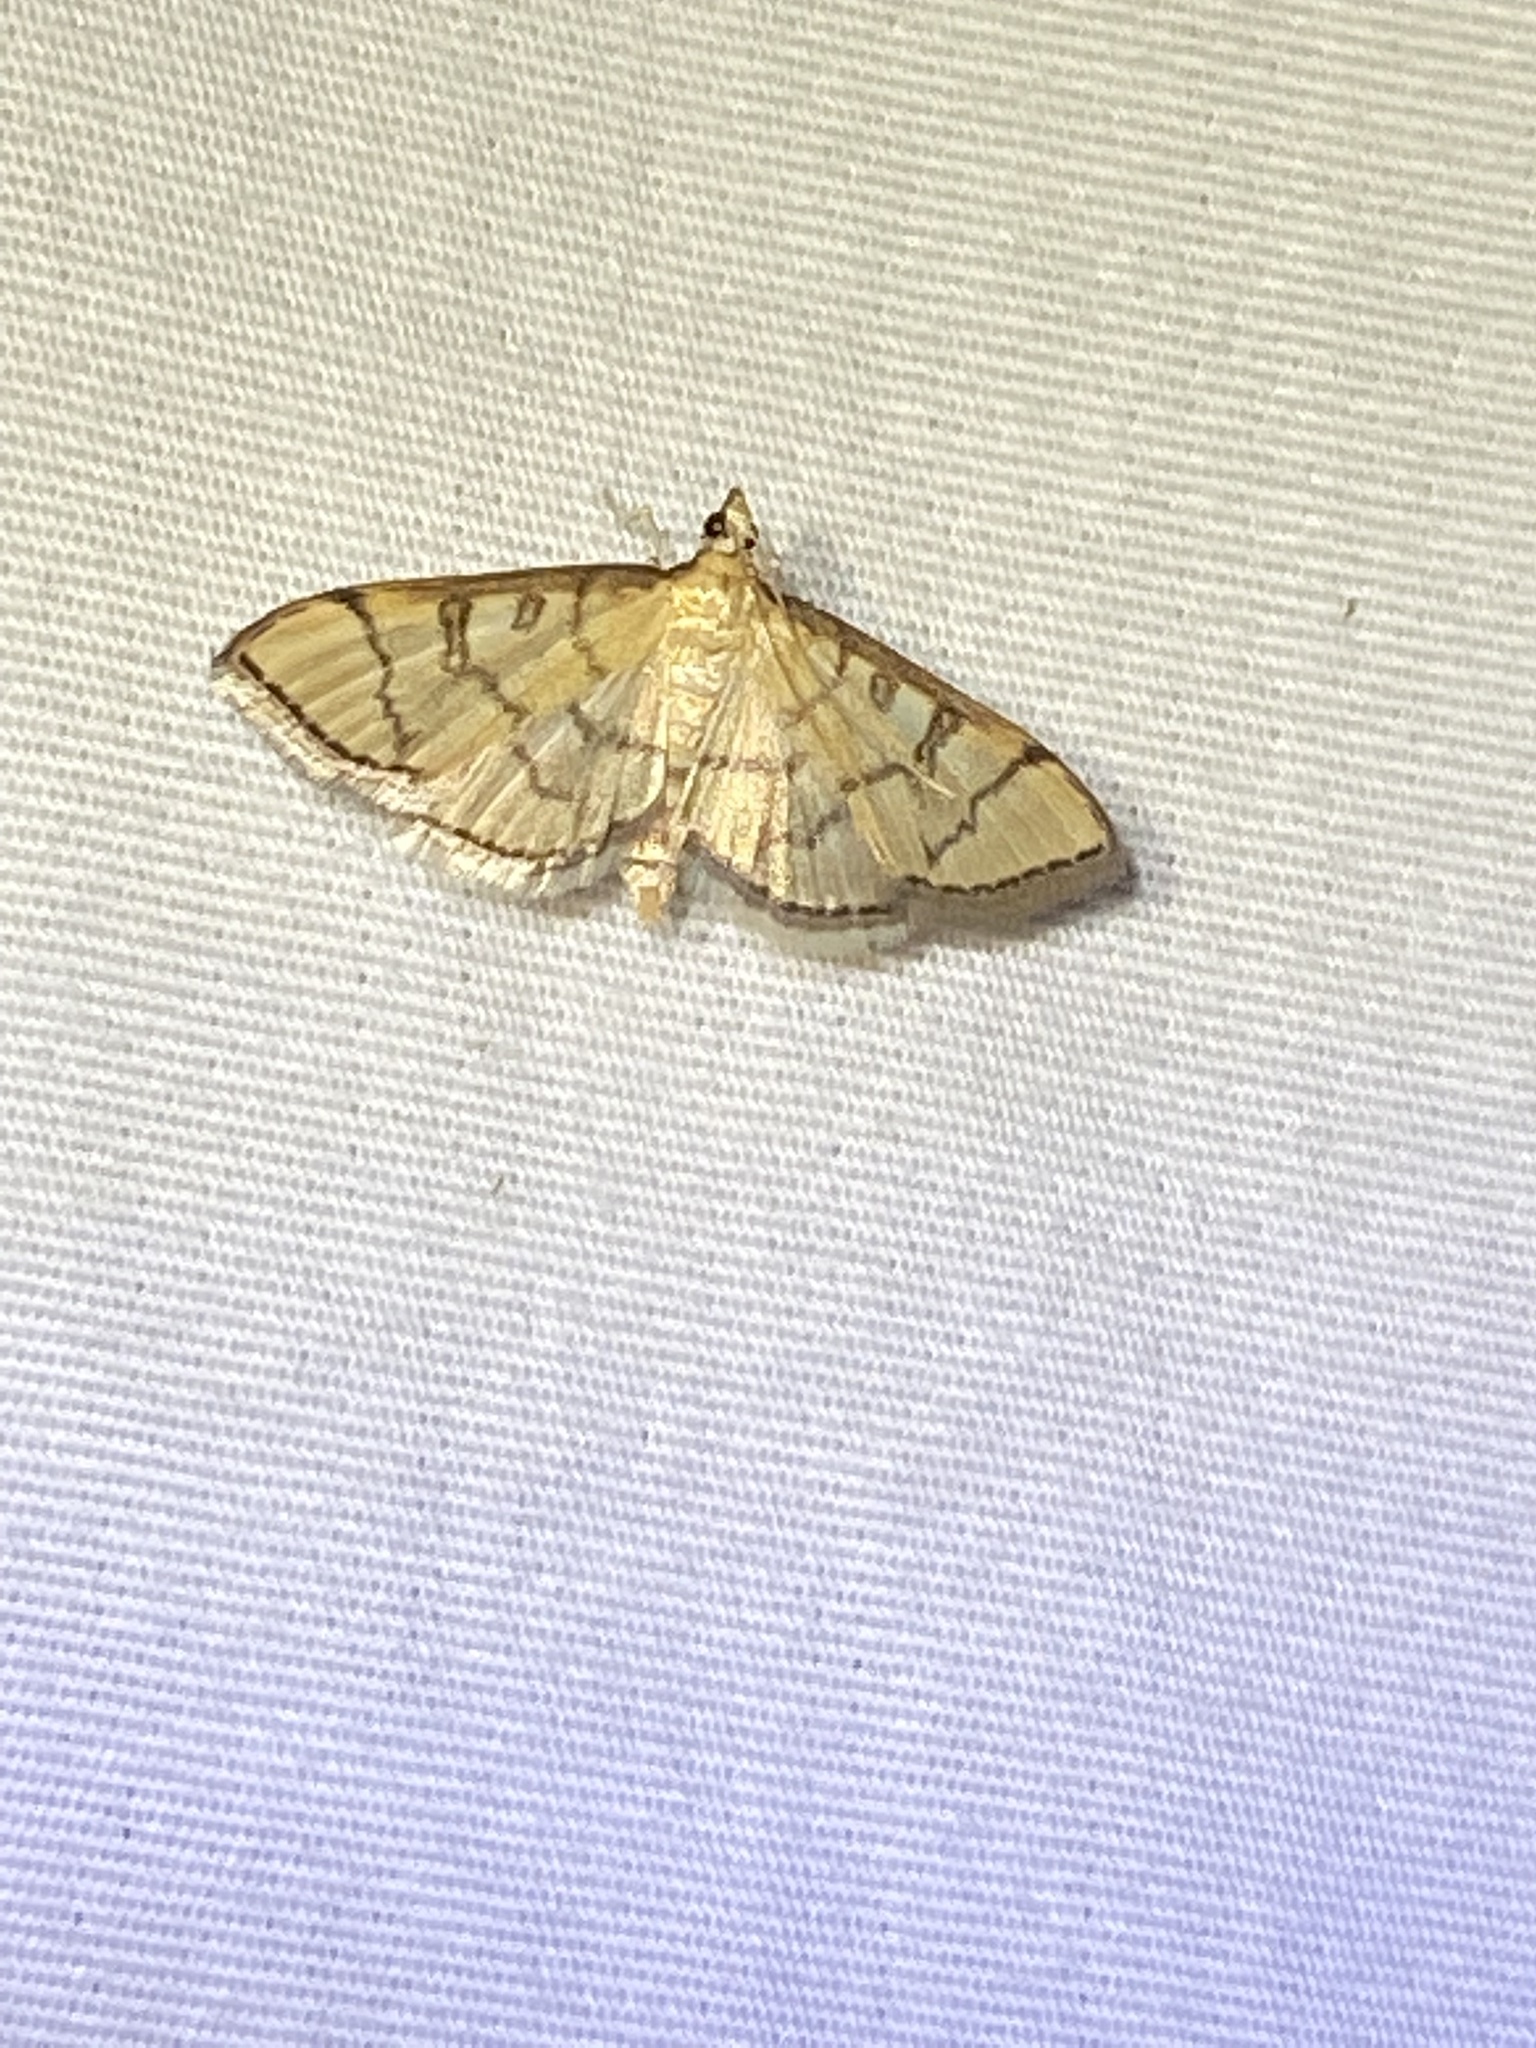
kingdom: Animalia
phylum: Arthropoda
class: Insecta
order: Lepidoptera
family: Crambidae
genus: Lamprosema
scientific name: Lamprosema Blepharomastix ranalis
